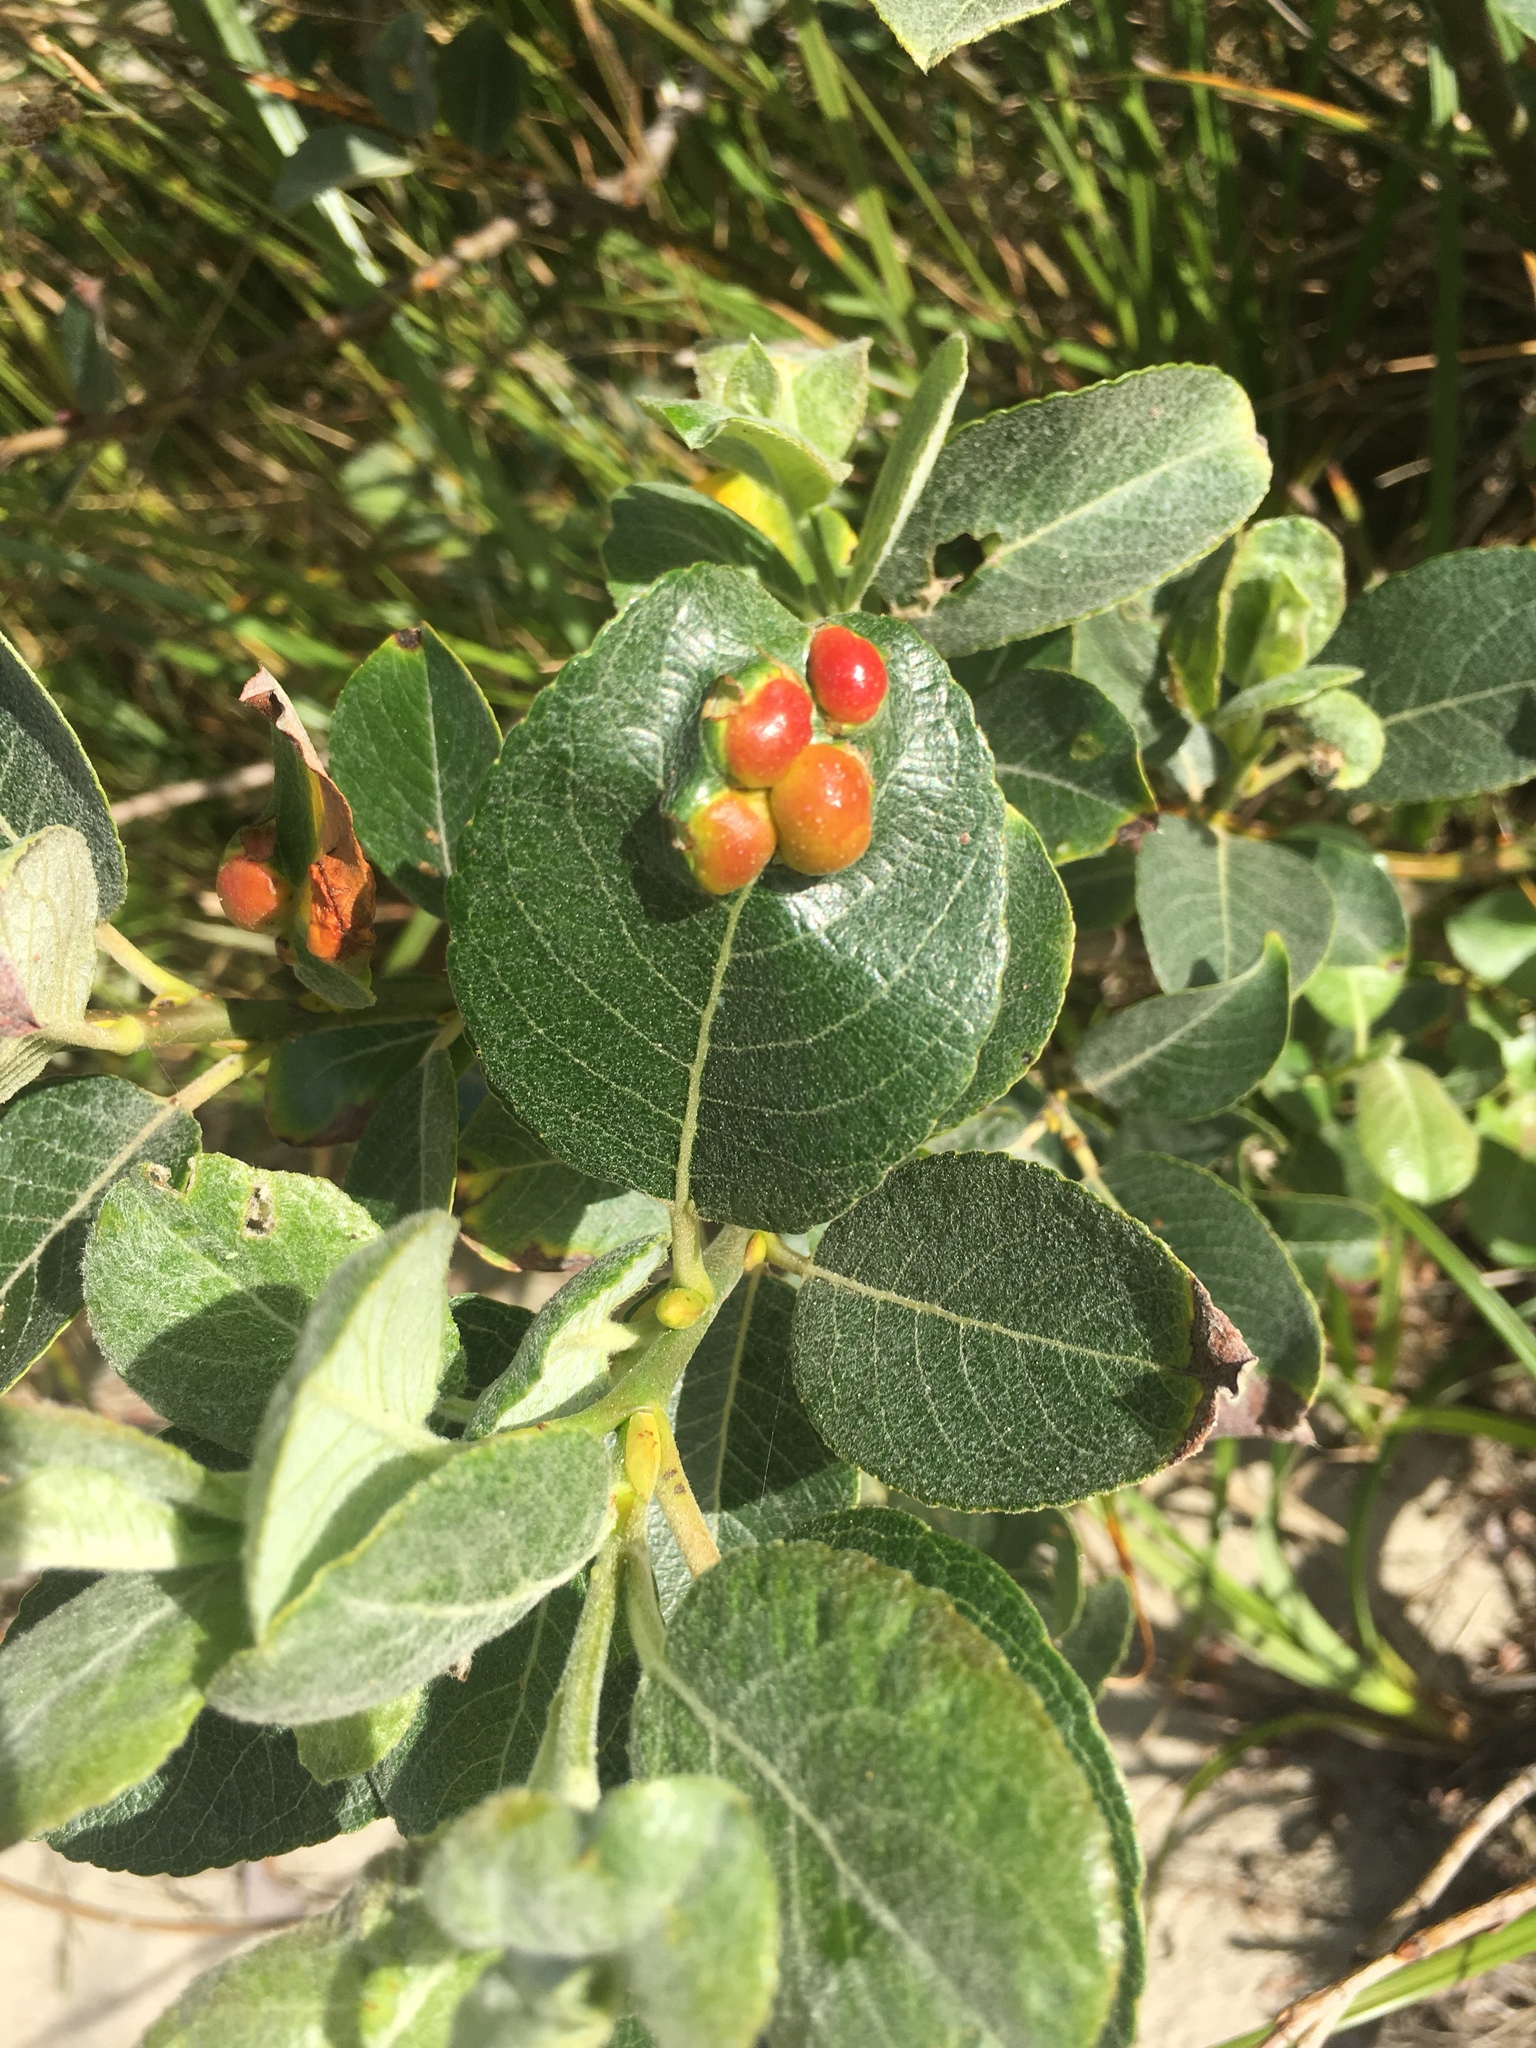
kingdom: Plantae
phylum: Tracheophyta
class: Magnoliopsida
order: Malpighiales
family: Salicaceae
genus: Salix
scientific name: Salix hookeriana
